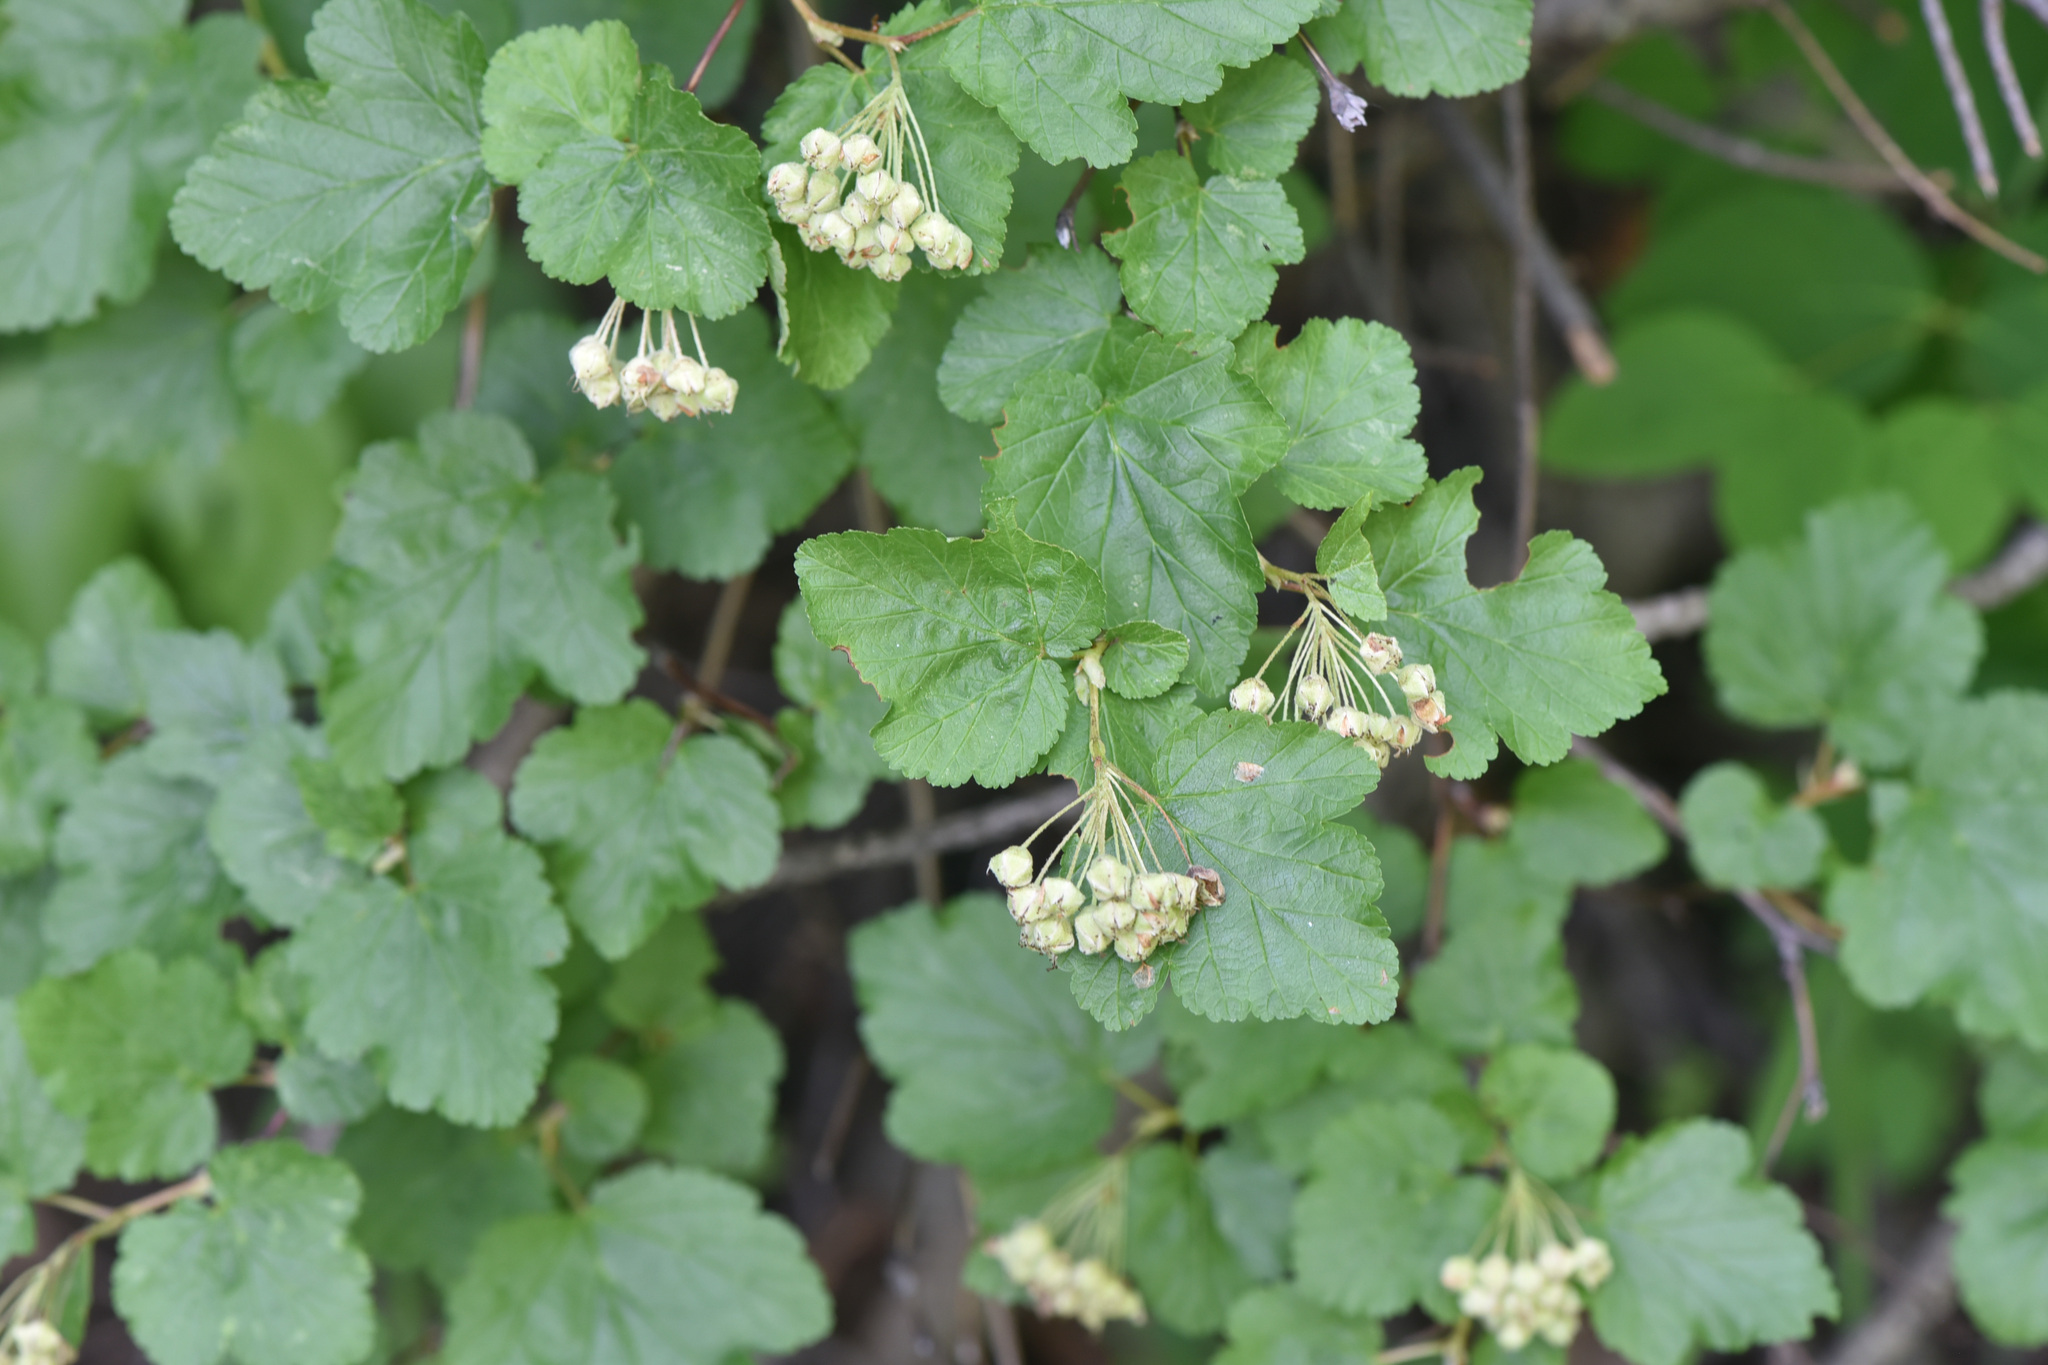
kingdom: Plantae
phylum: Tracheophyta
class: Magnoliopsida
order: Rosales
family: Rosaceae
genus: Physocarpus
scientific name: Physocarpus malvaceus
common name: Mallow ninebark
